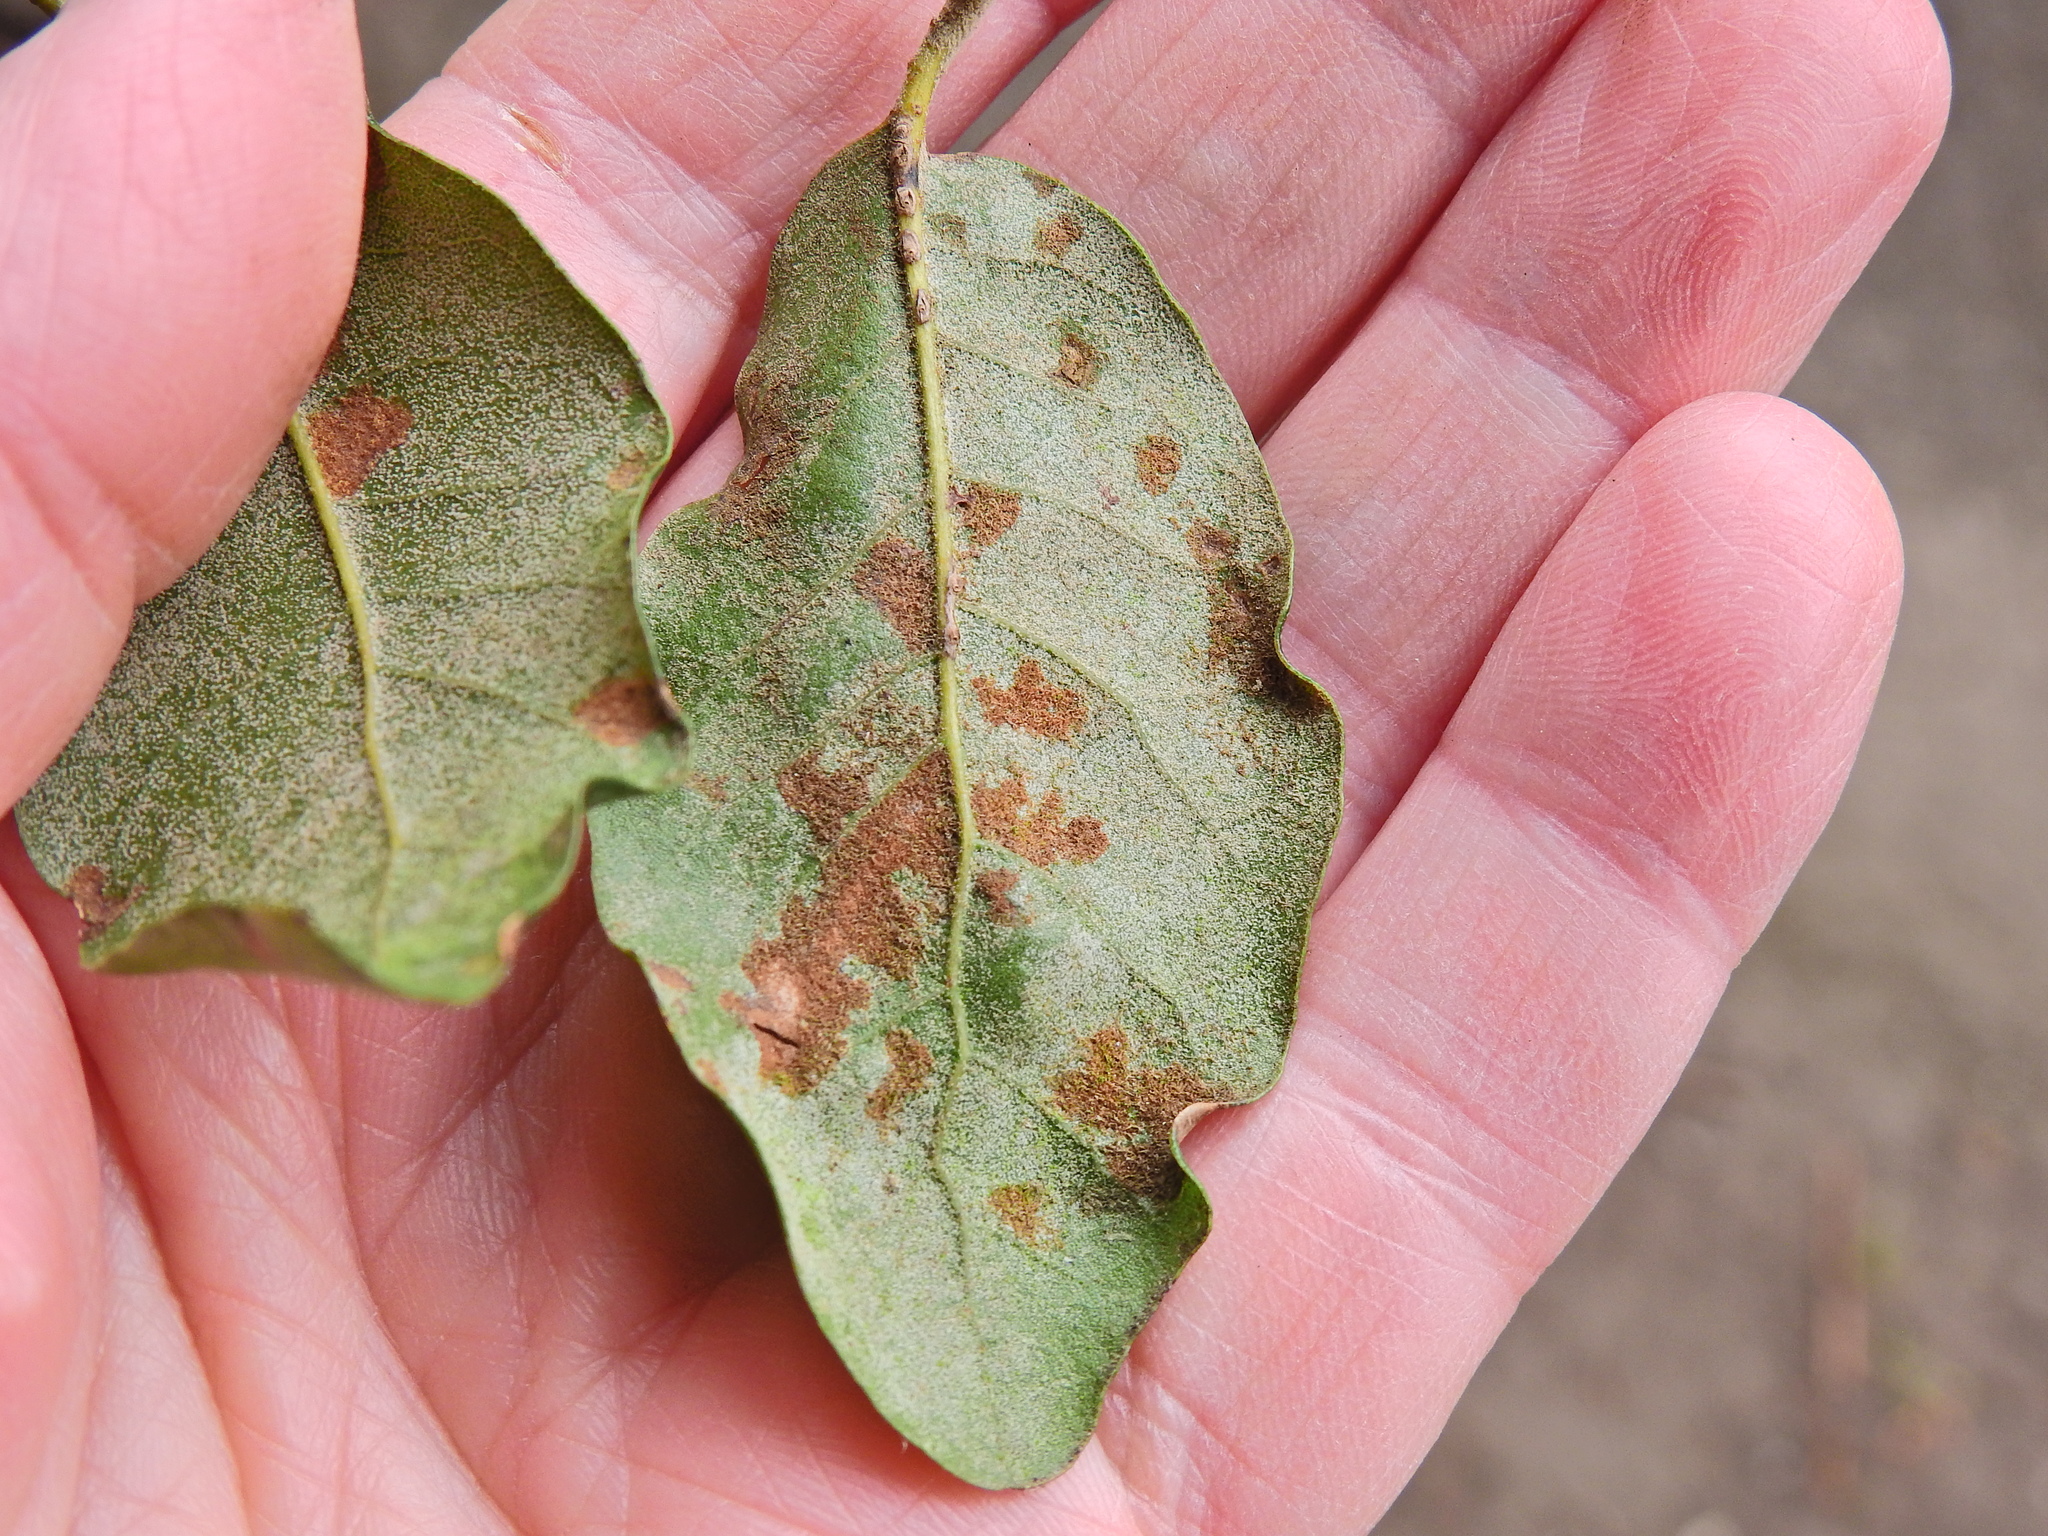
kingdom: Animalia
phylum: Arthropoda
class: Arachnida
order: Trombidiformes
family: Eriophyidae
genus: Aceria
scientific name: Aceria ilicis
